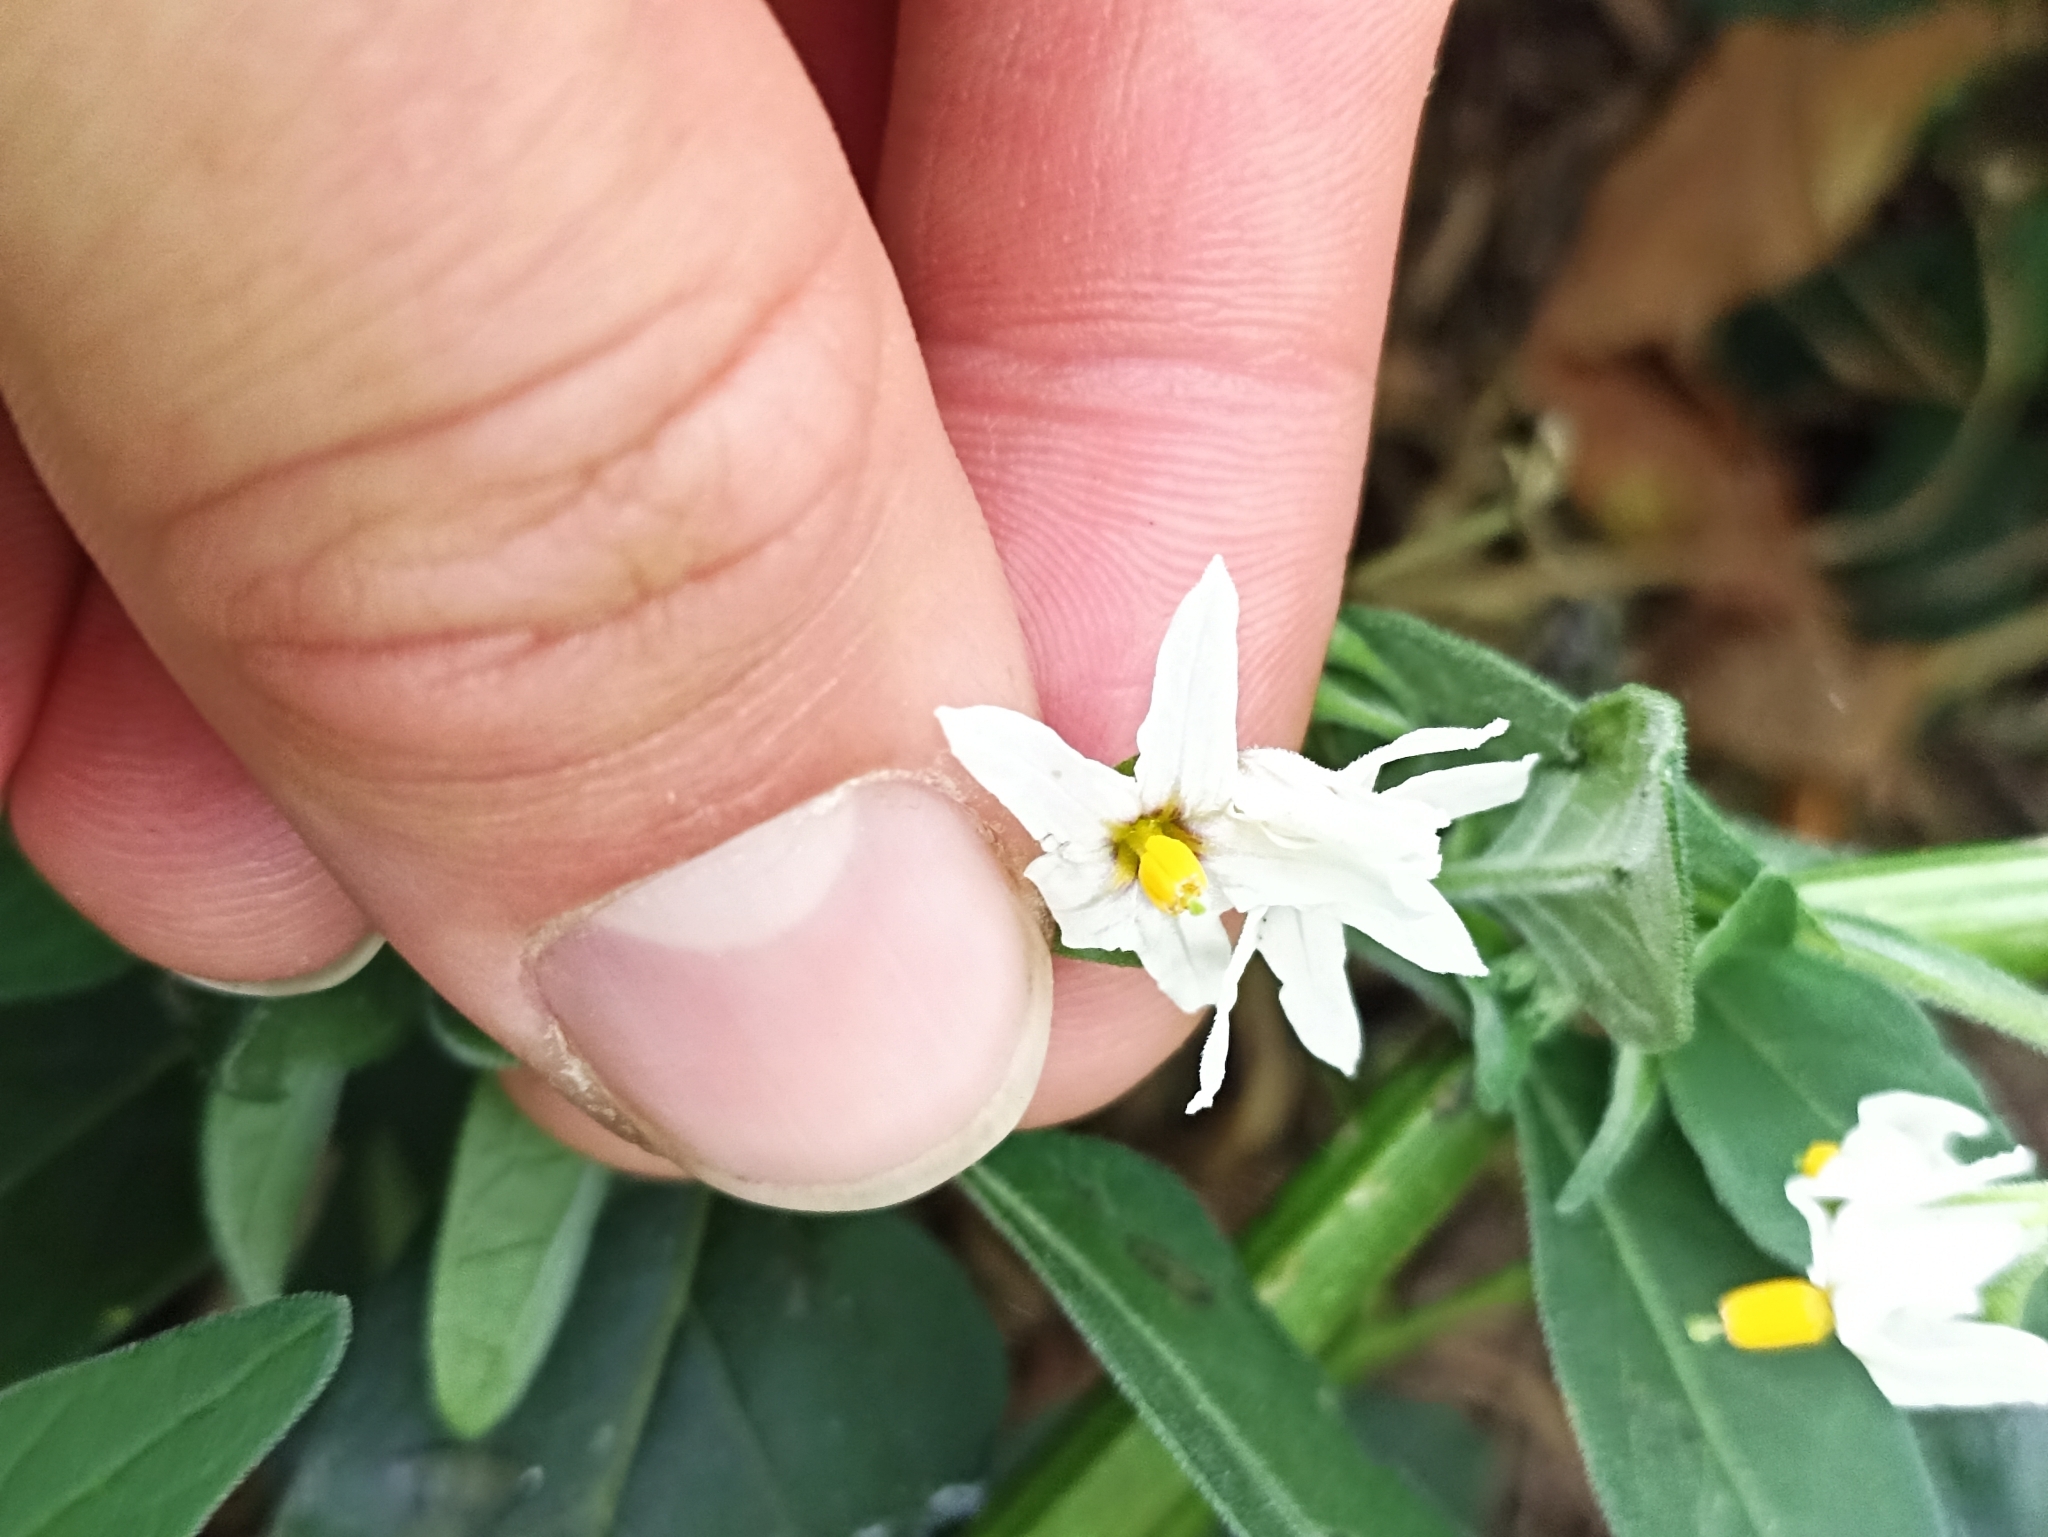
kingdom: Plantae
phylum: Tracheophyta
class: Magnoliopsida
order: Solanales
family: Solanaceae
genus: Solanum
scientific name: Solanum chenopodioides
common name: Tall nightshade
